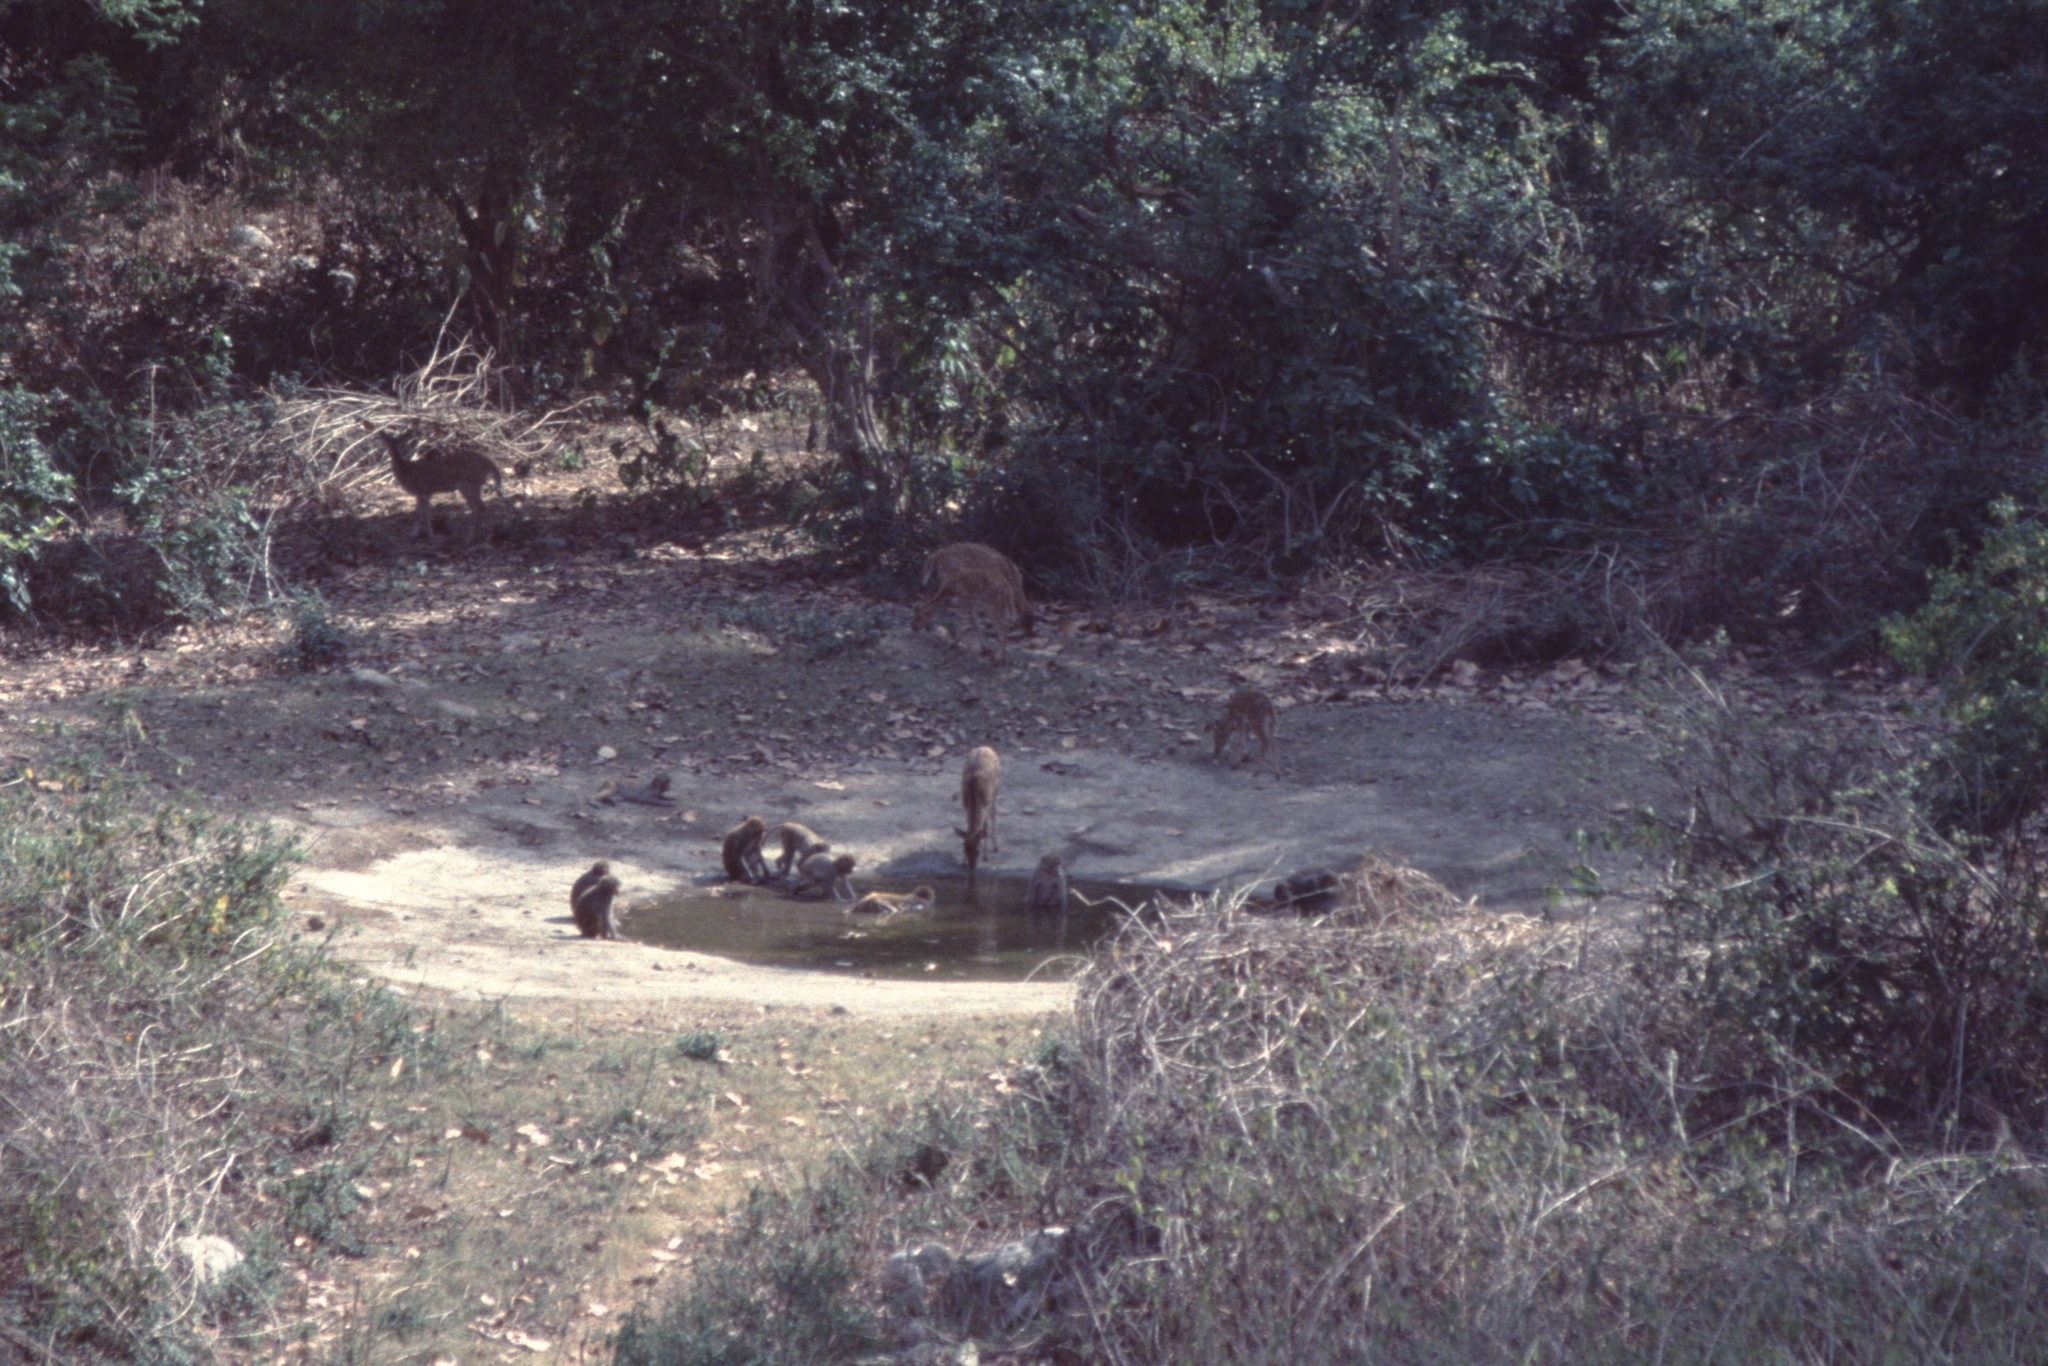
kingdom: Animalia
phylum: Chordata
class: Mammalia
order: Artiodactyla
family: Cervidae
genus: Axis
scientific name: Axis axis
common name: Chital
